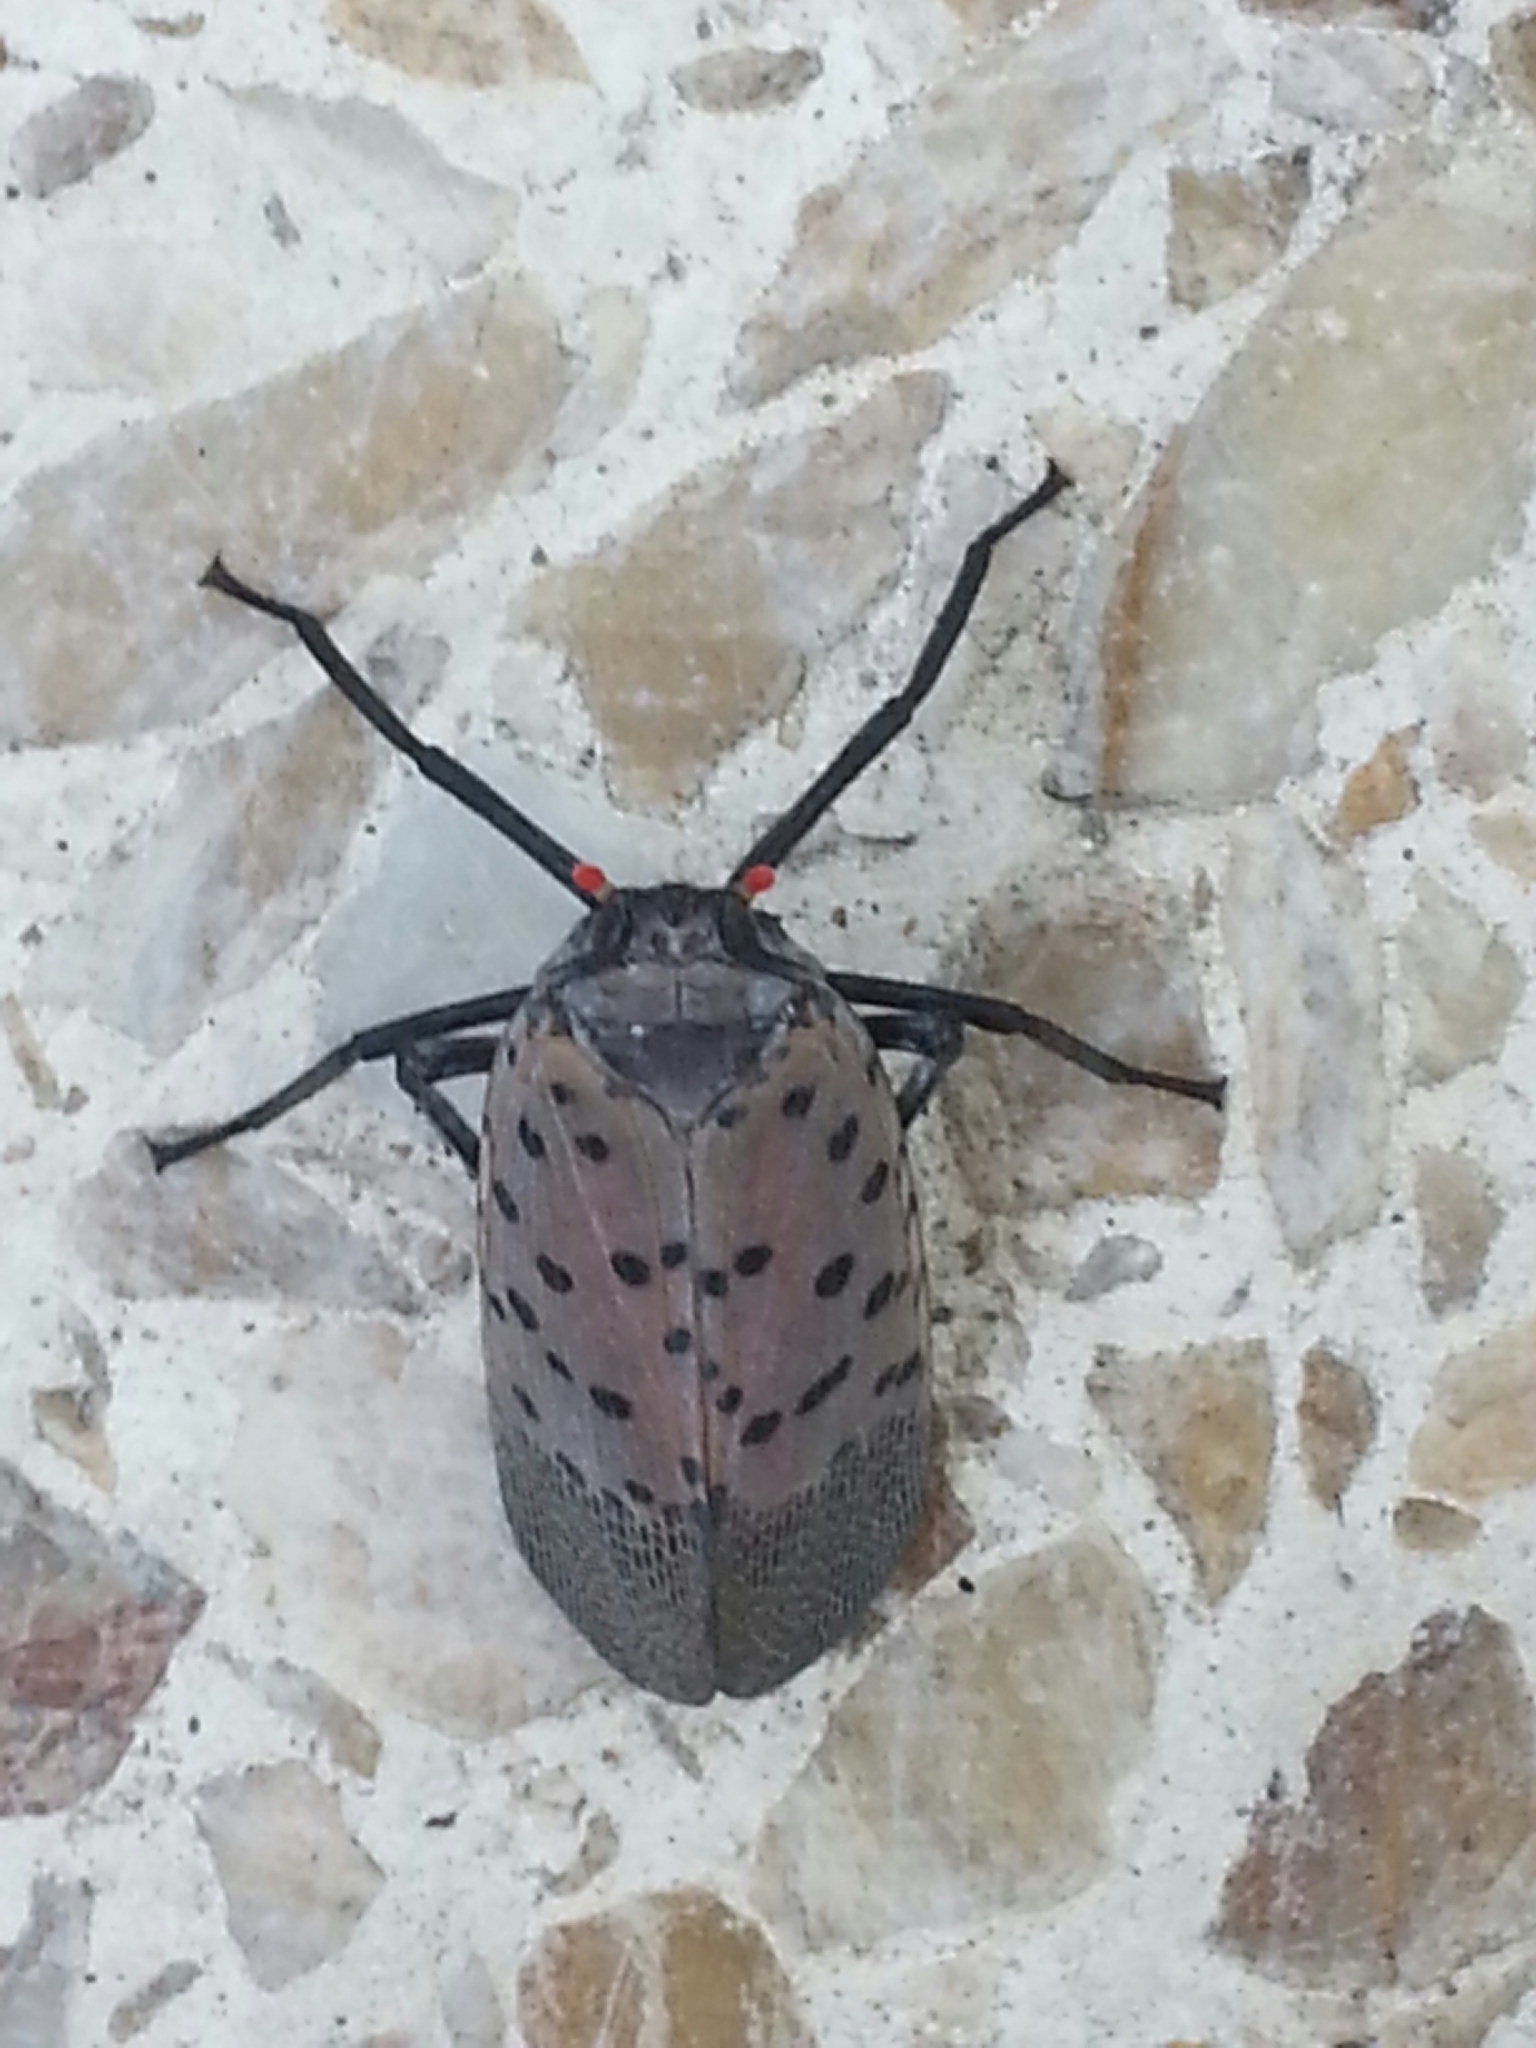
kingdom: Animalia
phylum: Arthropoda
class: Insecta
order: Hemiptera
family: Fulgoridae
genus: Lycorma
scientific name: Lycorma delicatula
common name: Spotted lanternfly
